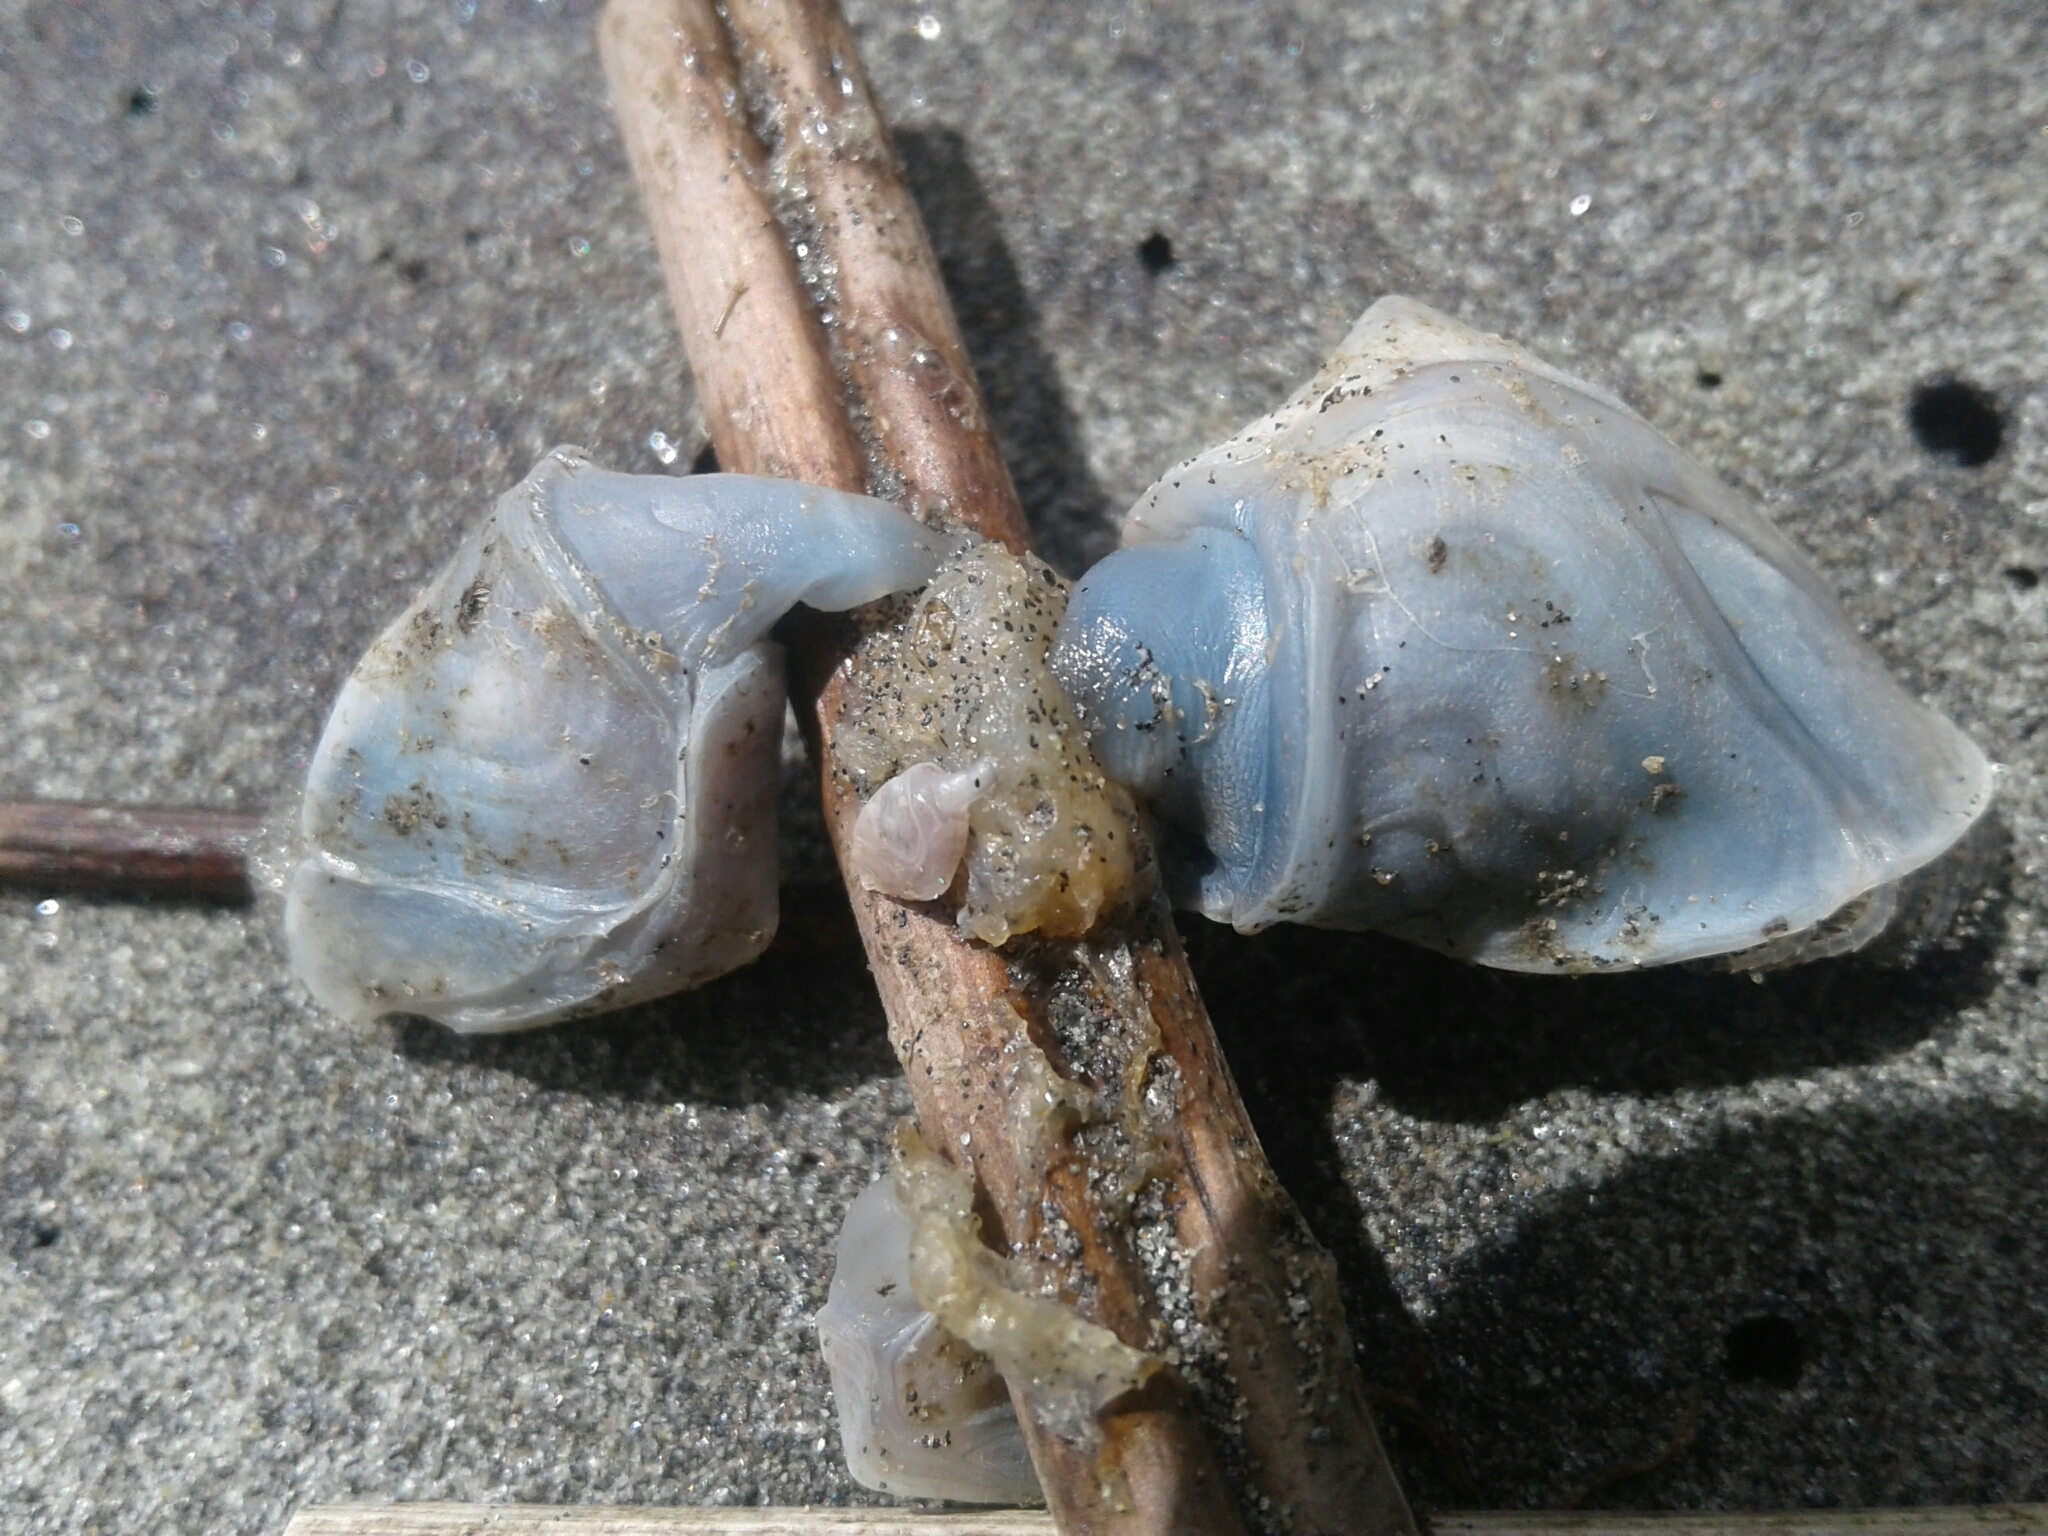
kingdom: Animalia
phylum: Arthropoda
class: Maxillopoda
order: Pedunculata
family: Lepadidae
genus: Dosima
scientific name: Dosima fascicularis
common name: Buoy barnacle
